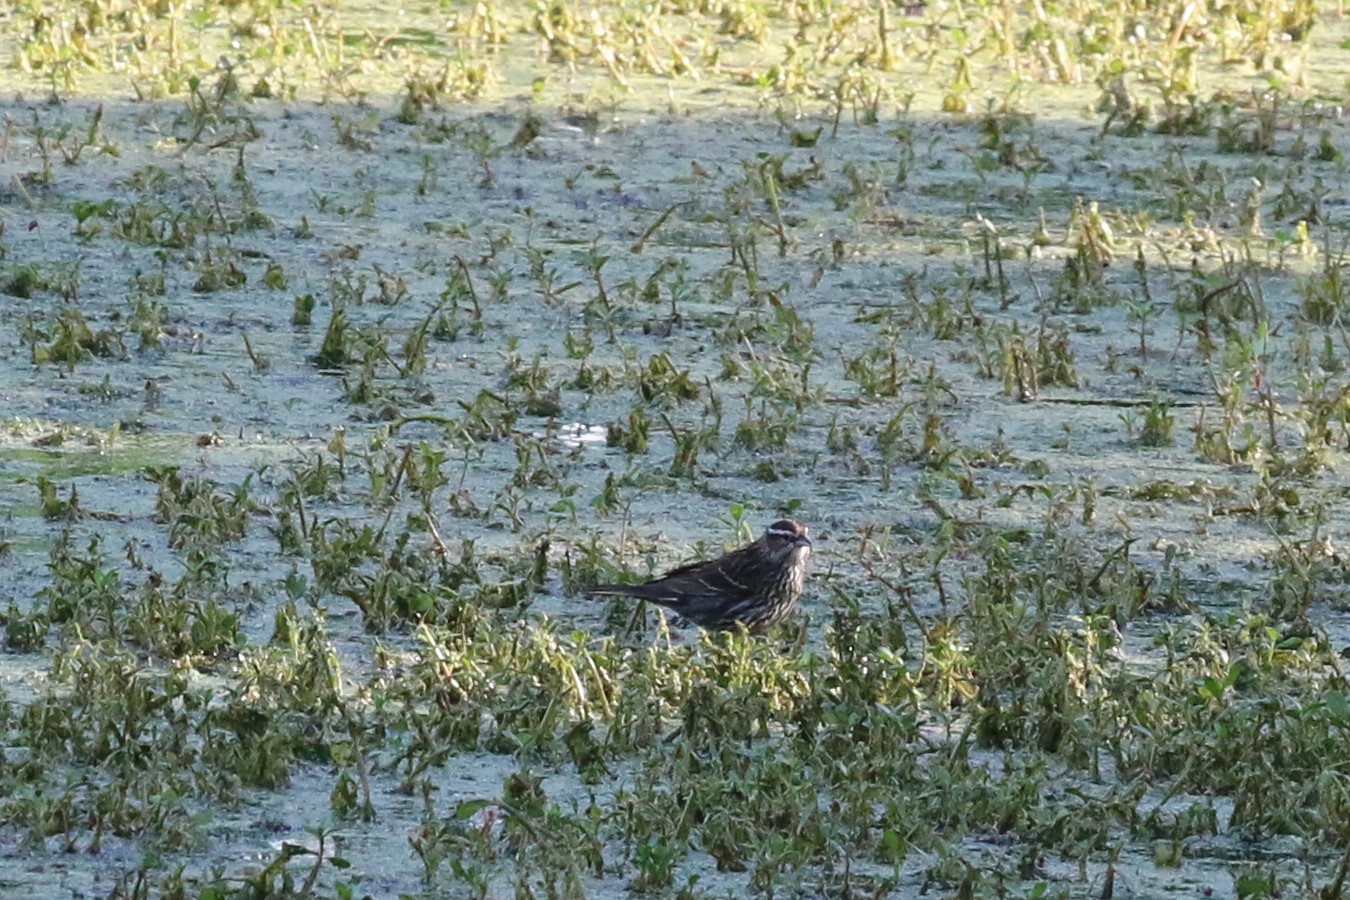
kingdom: Animalia
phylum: Chordata
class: Aves
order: Passeriformes
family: Icteridae
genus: Agelaius
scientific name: Agelaius phoeniceus
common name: Red-winged blackbird
